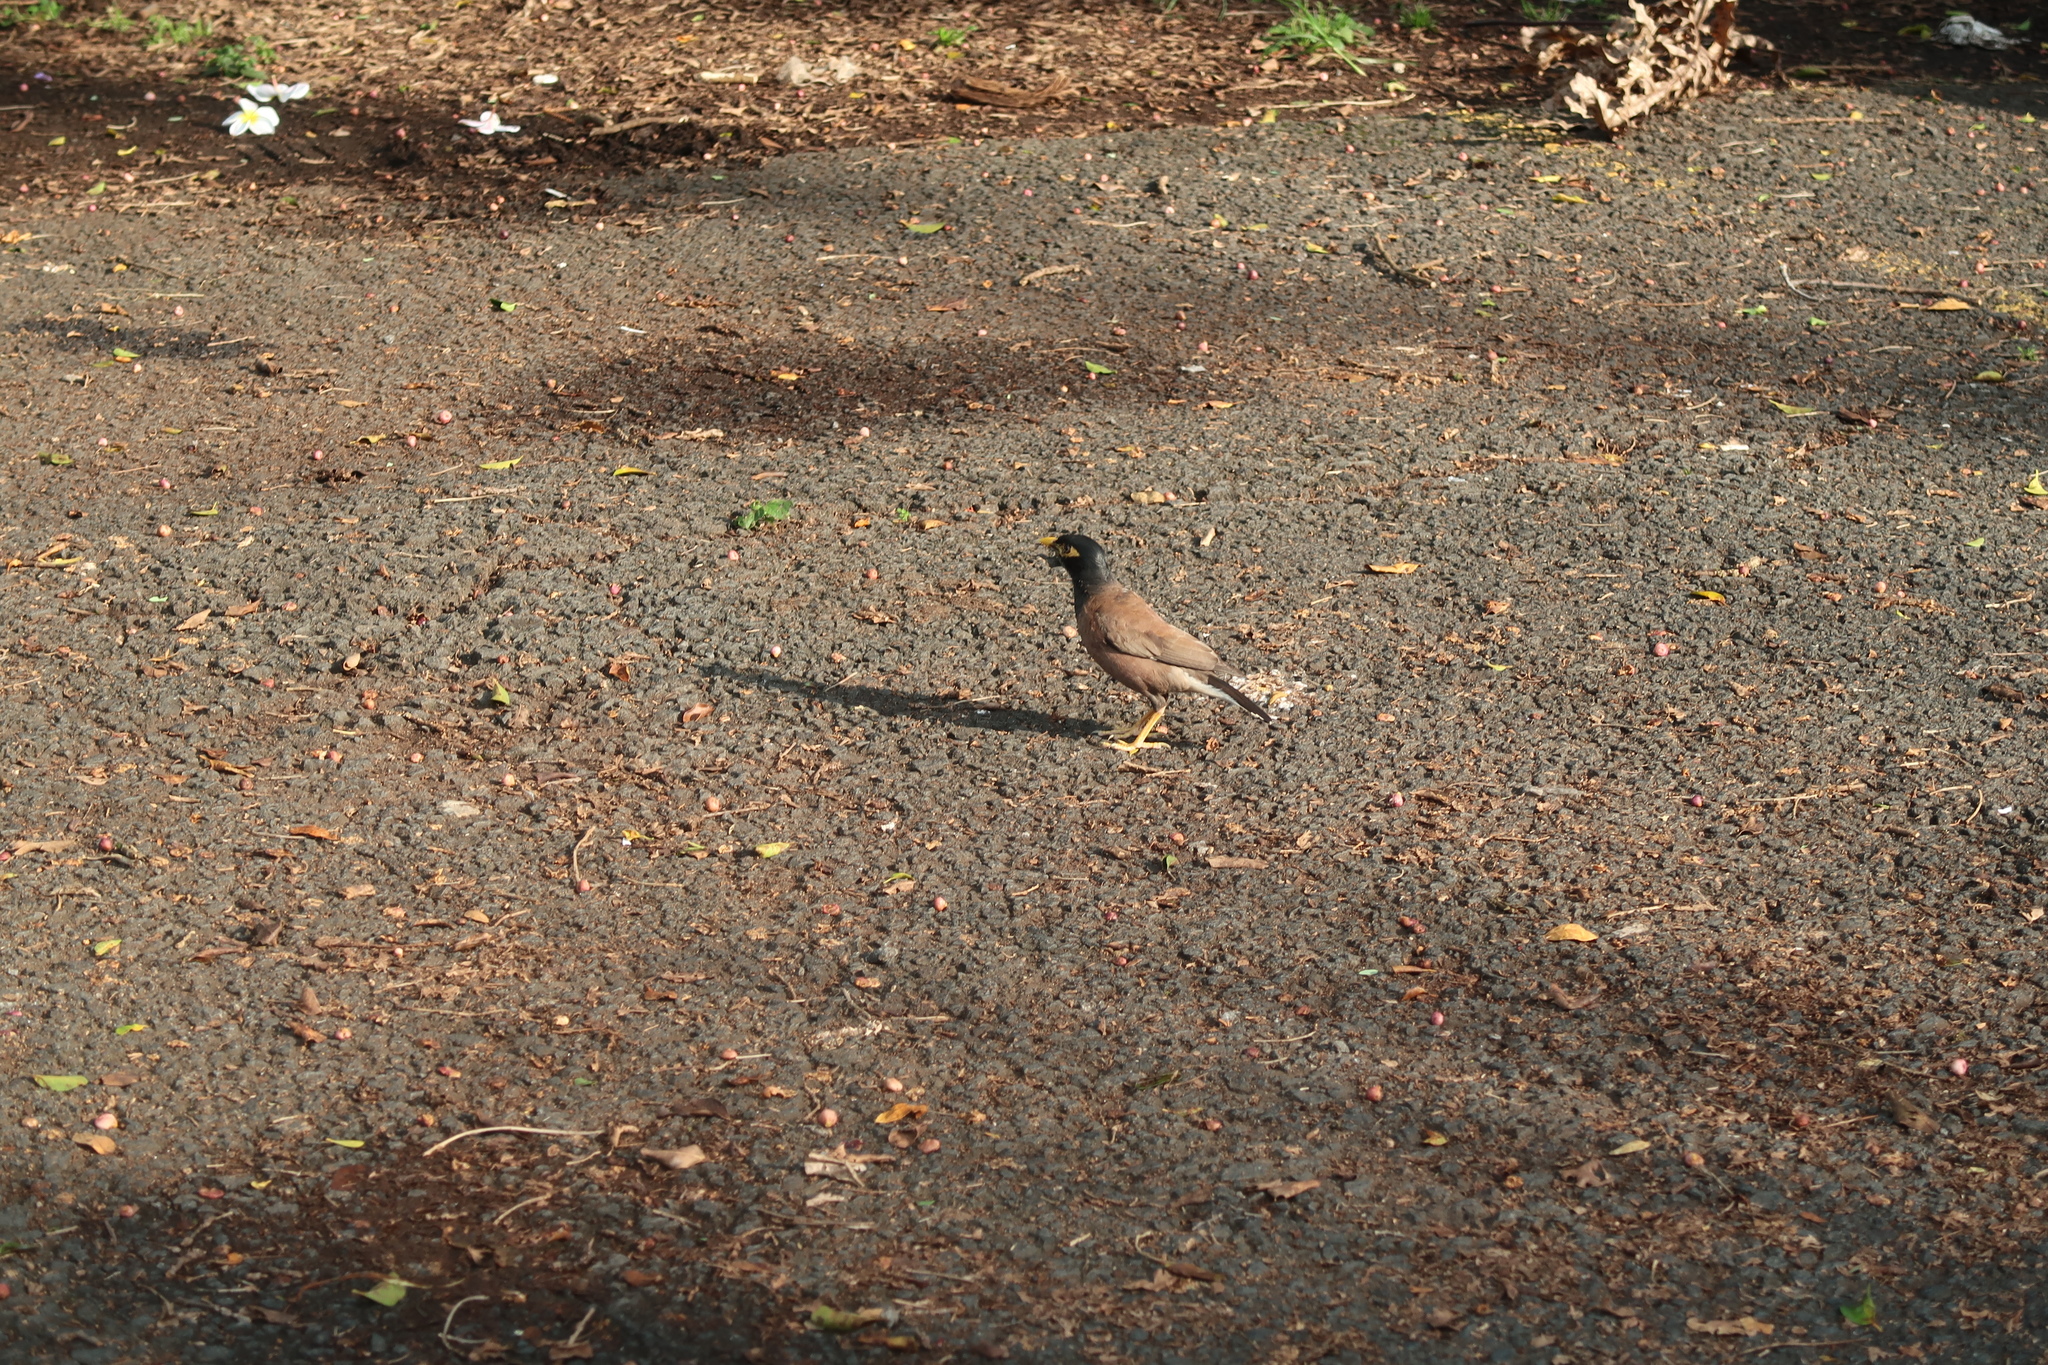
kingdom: Animalia
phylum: Chordata
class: Aves
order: Passeriformes
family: Sturnidae
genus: Acridotheres
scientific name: Acridotheres tristis
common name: Common myna
